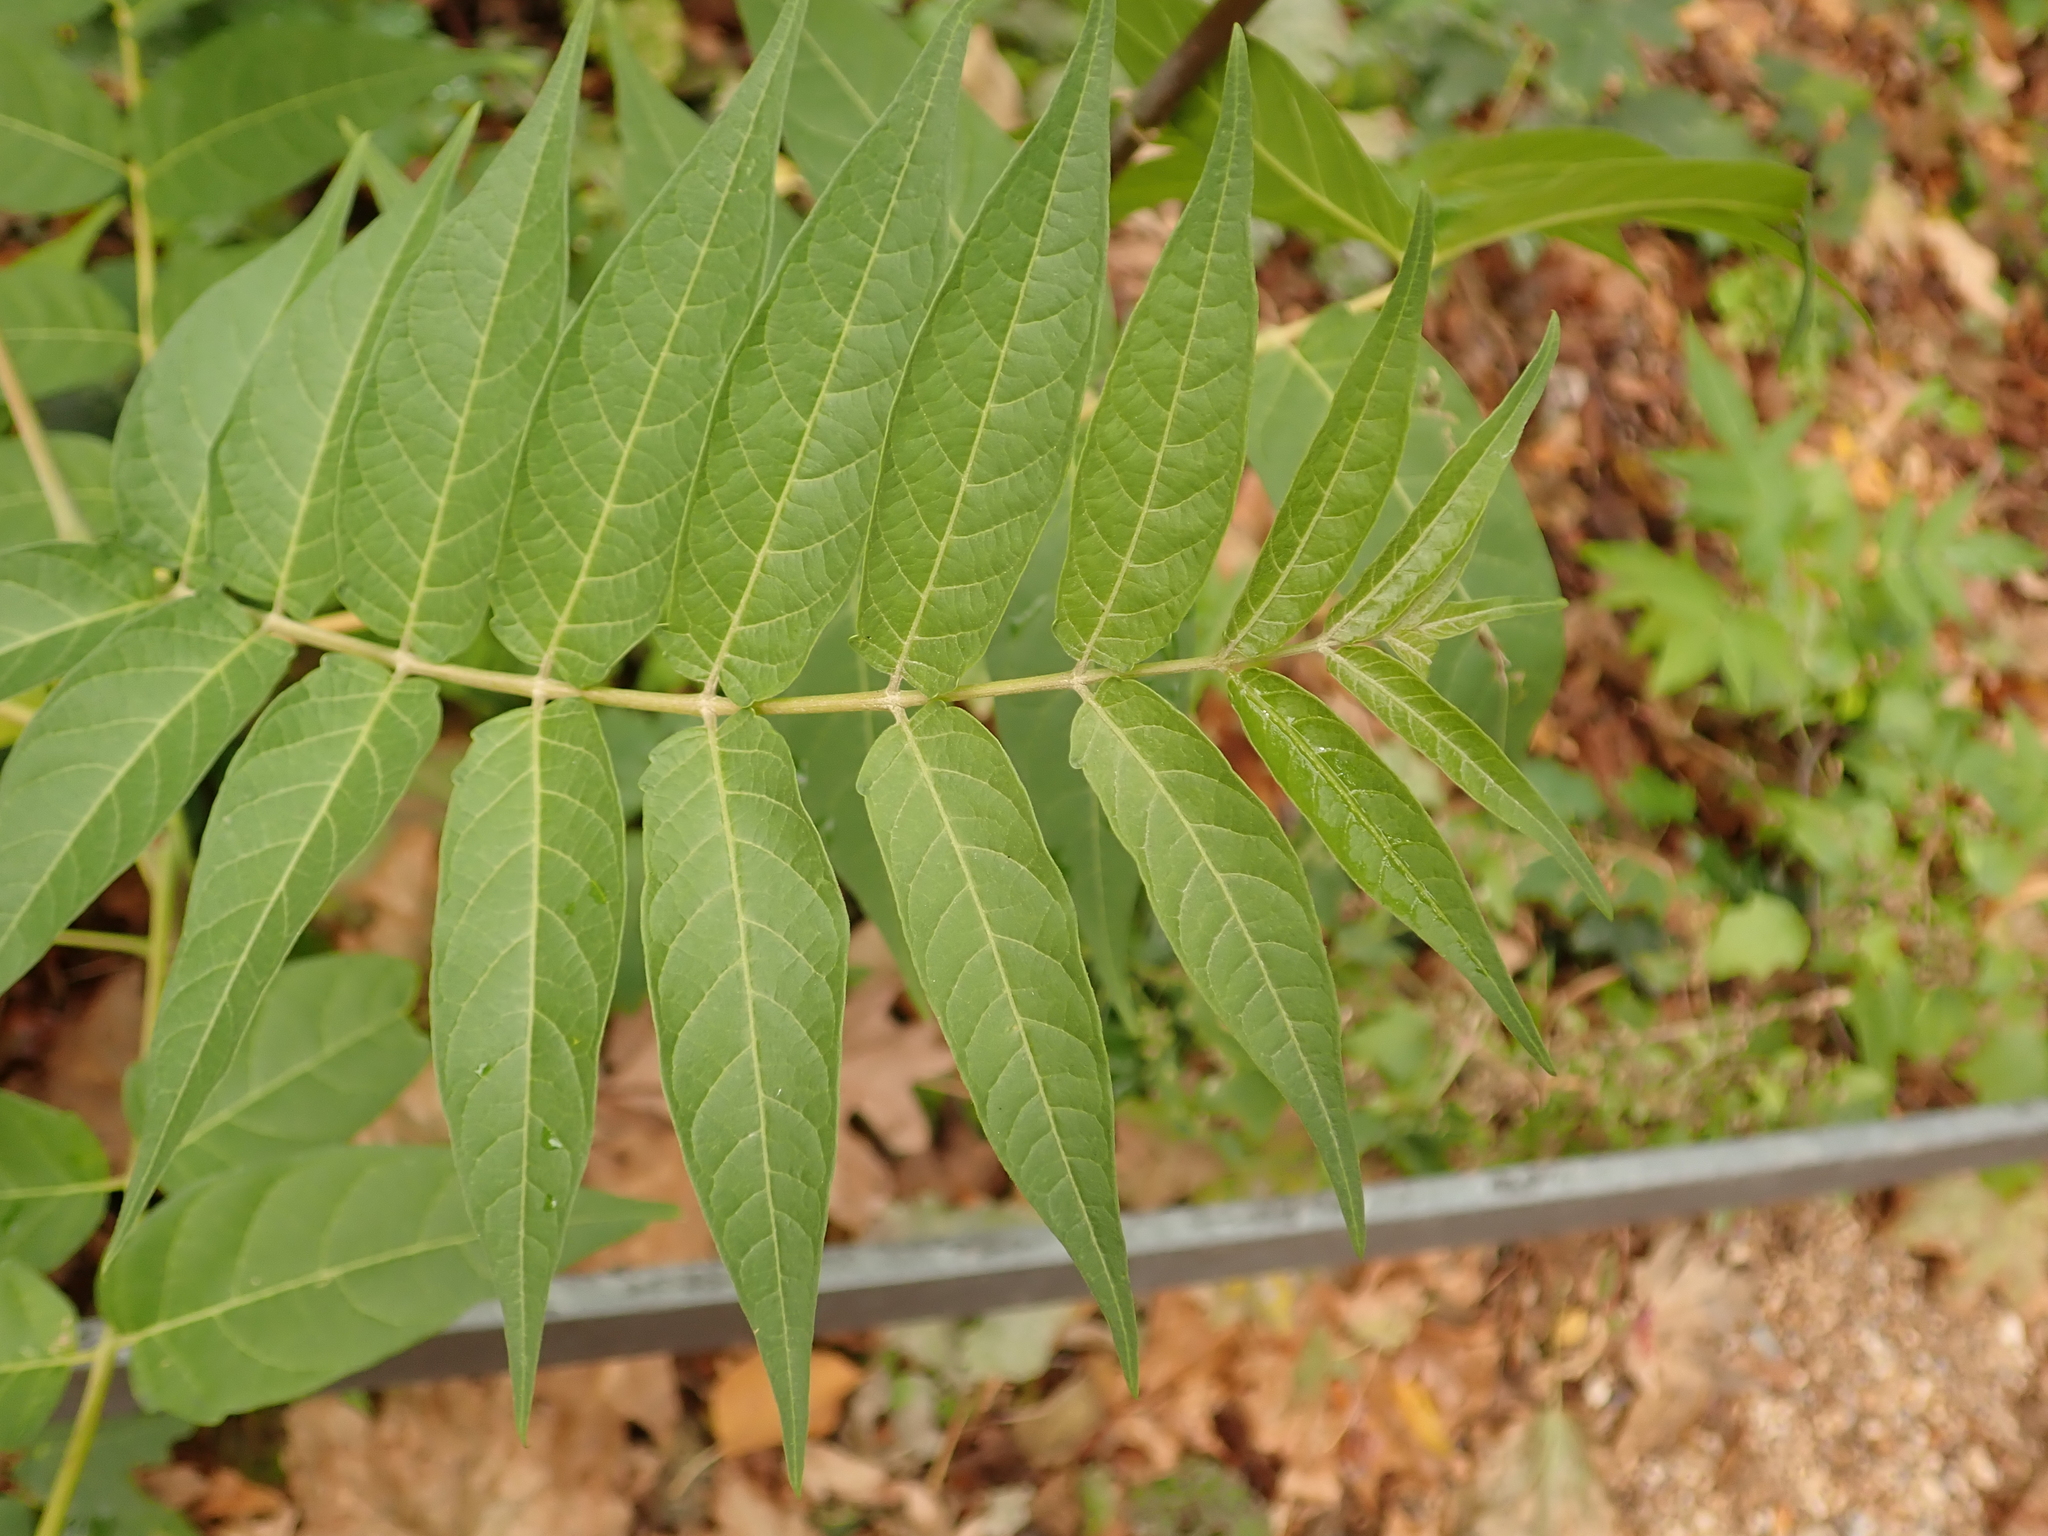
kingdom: Plantae
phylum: Tracheophyta
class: Magnoliopsida
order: Sapindales
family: Simaroubaceae
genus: Ailanthus
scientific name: Ailanthus altissima
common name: Tree-of-heaven
